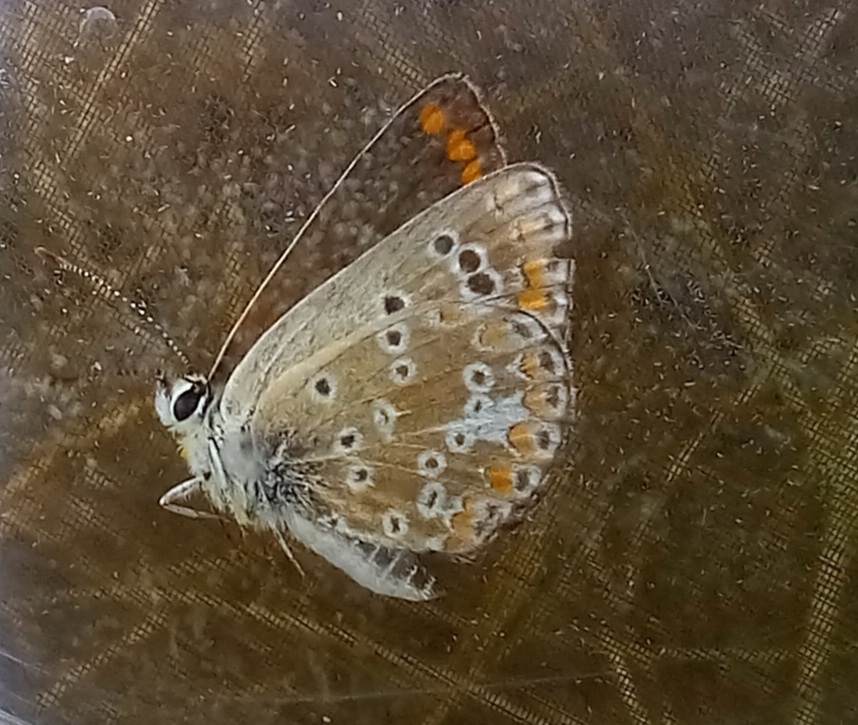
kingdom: Animalia
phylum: Arthropoda
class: Insecta
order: Lepidoptera
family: Lycaenidae
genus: Aricia
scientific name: Aricia cramera
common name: Eschscholtz´s brown  argus
